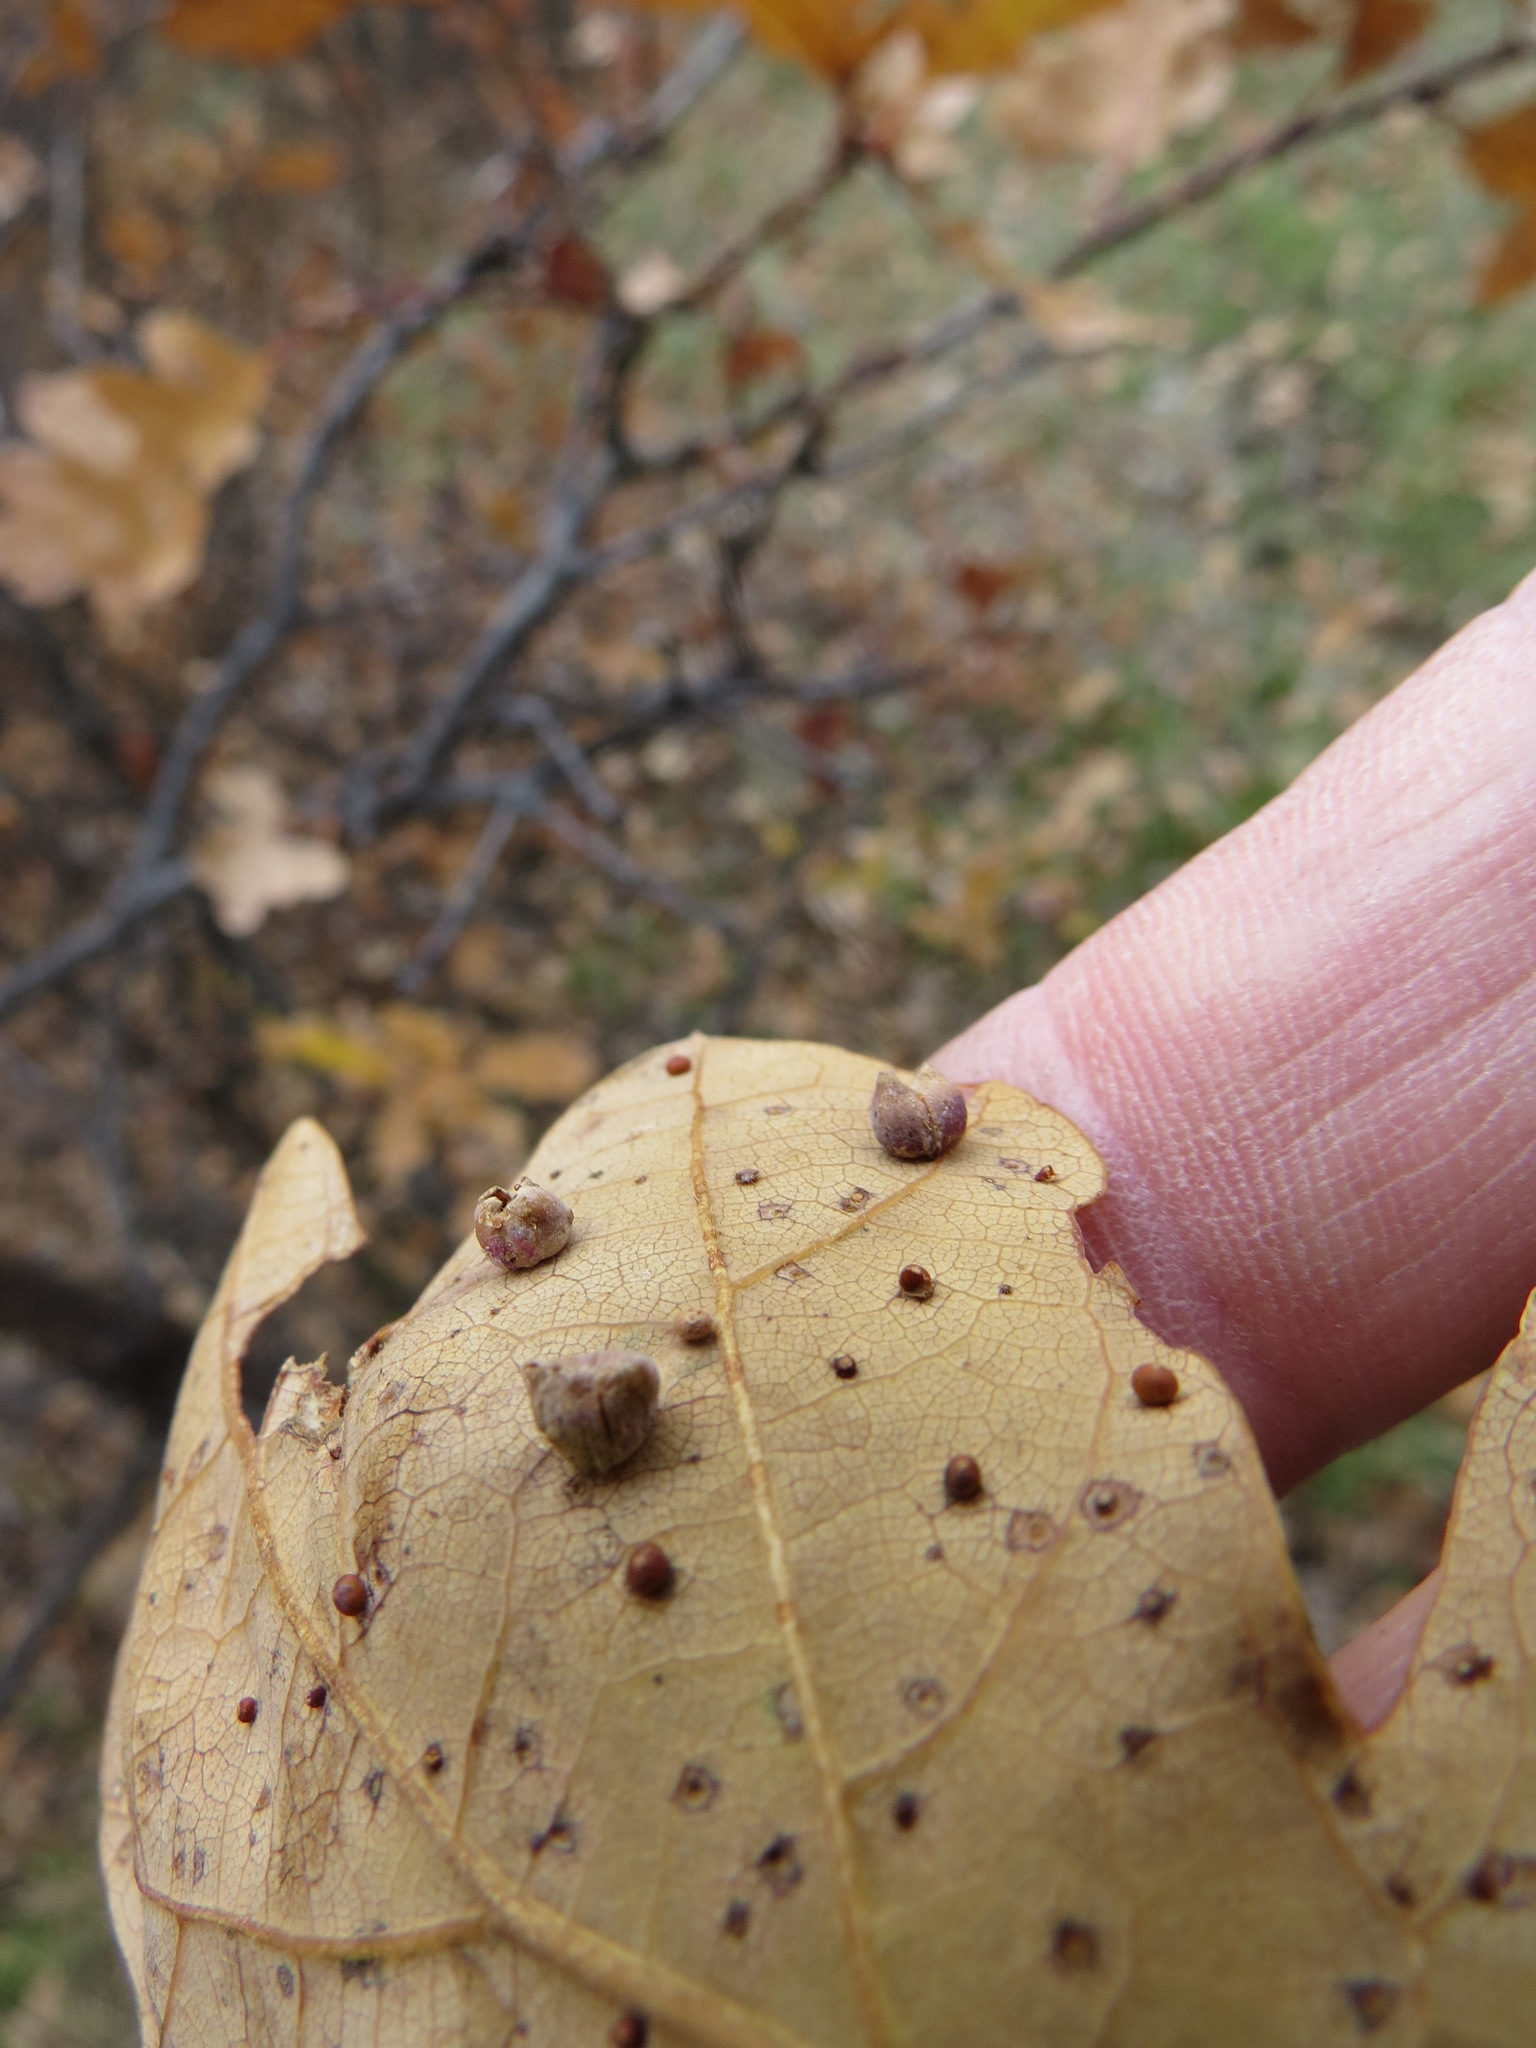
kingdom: Animalia
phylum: Arthropoda
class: Insecta
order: Hymenoptera
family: Cynipidae
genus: Andricus
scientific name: Andricus
